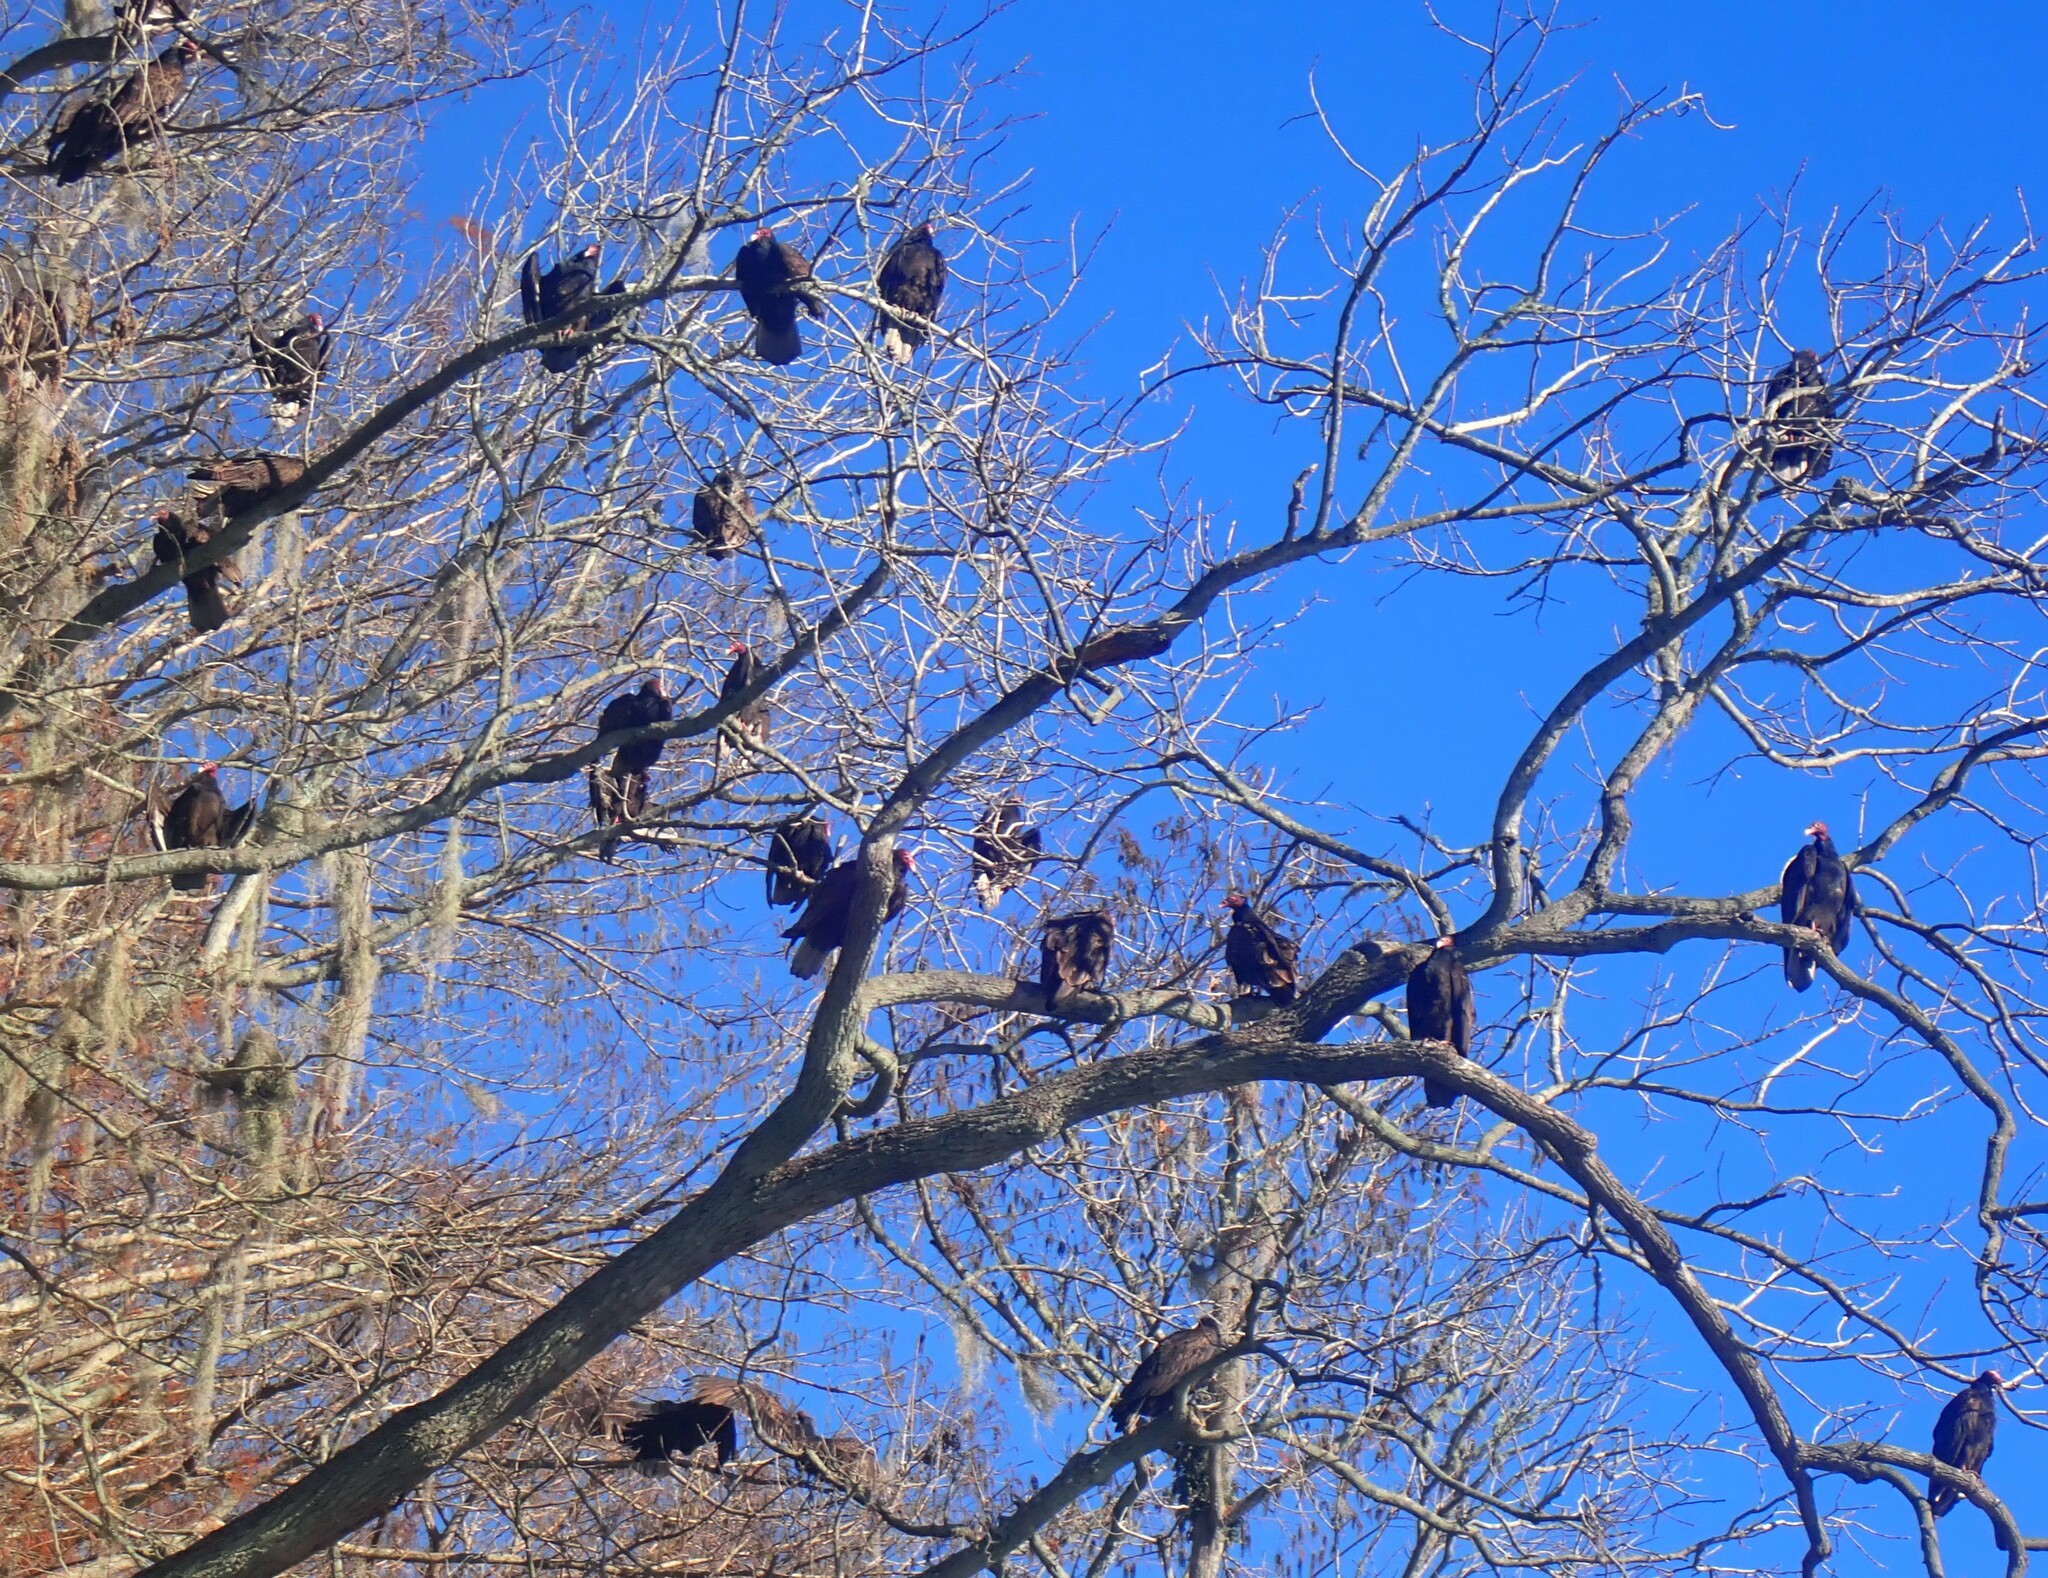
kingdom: Animalia
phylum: Chordata
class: Aves
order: Accipitriformes
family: Cathartidae
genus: Cathartes
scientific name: Cathartes aura
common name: Turkey vulture
